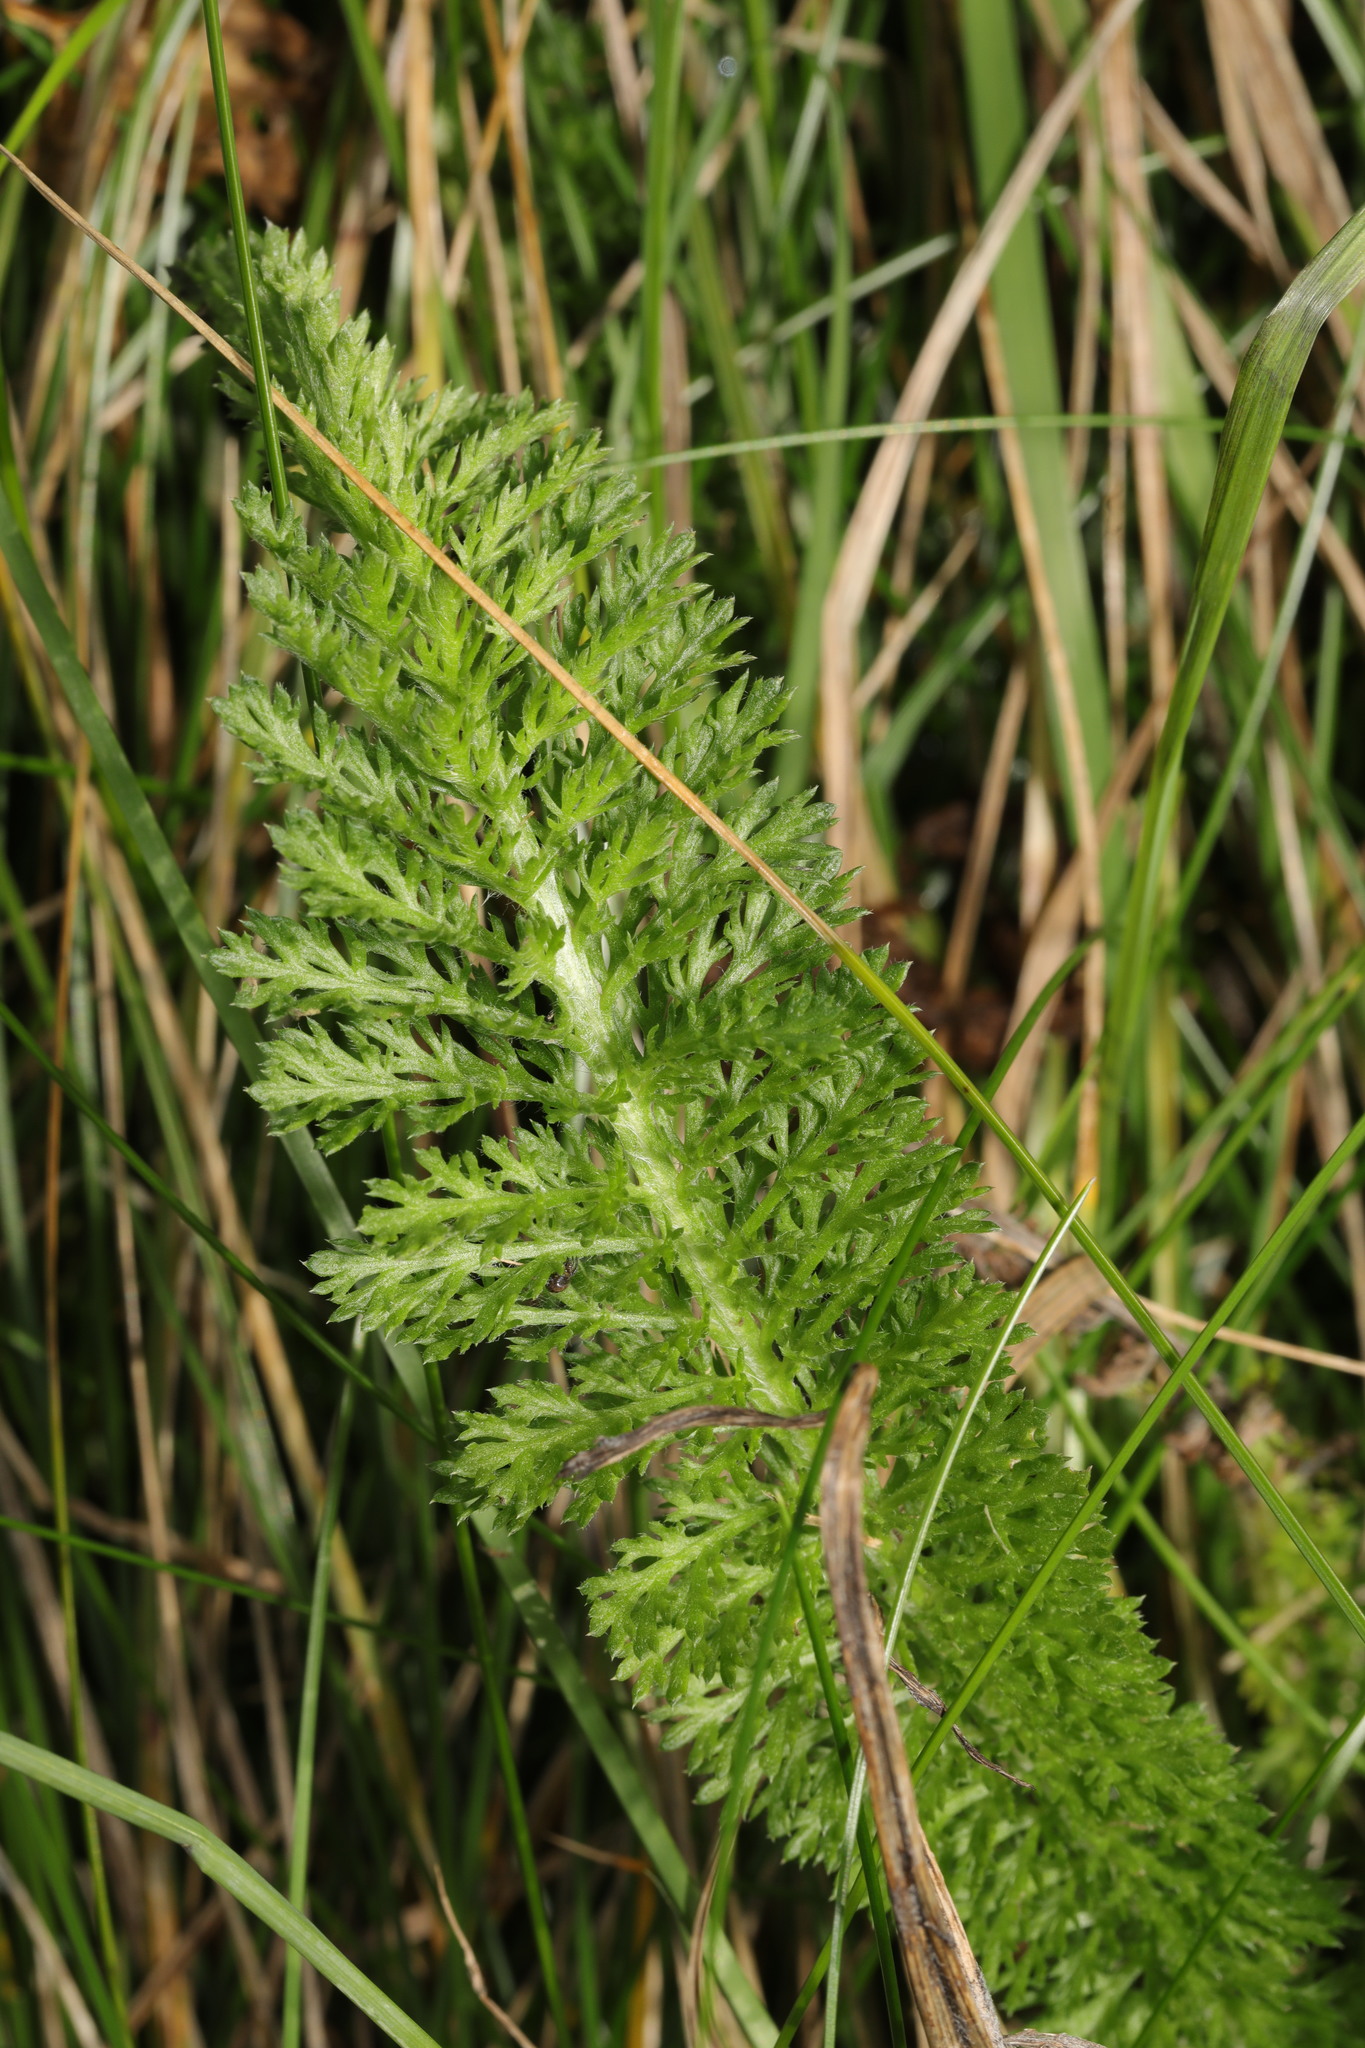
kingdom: Plantae
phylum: Tracheophyta
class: Magnoliopsida
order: Asterales
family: Asteraceae
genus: Achillea
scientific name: Achillea millefolium
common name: Yarrow
